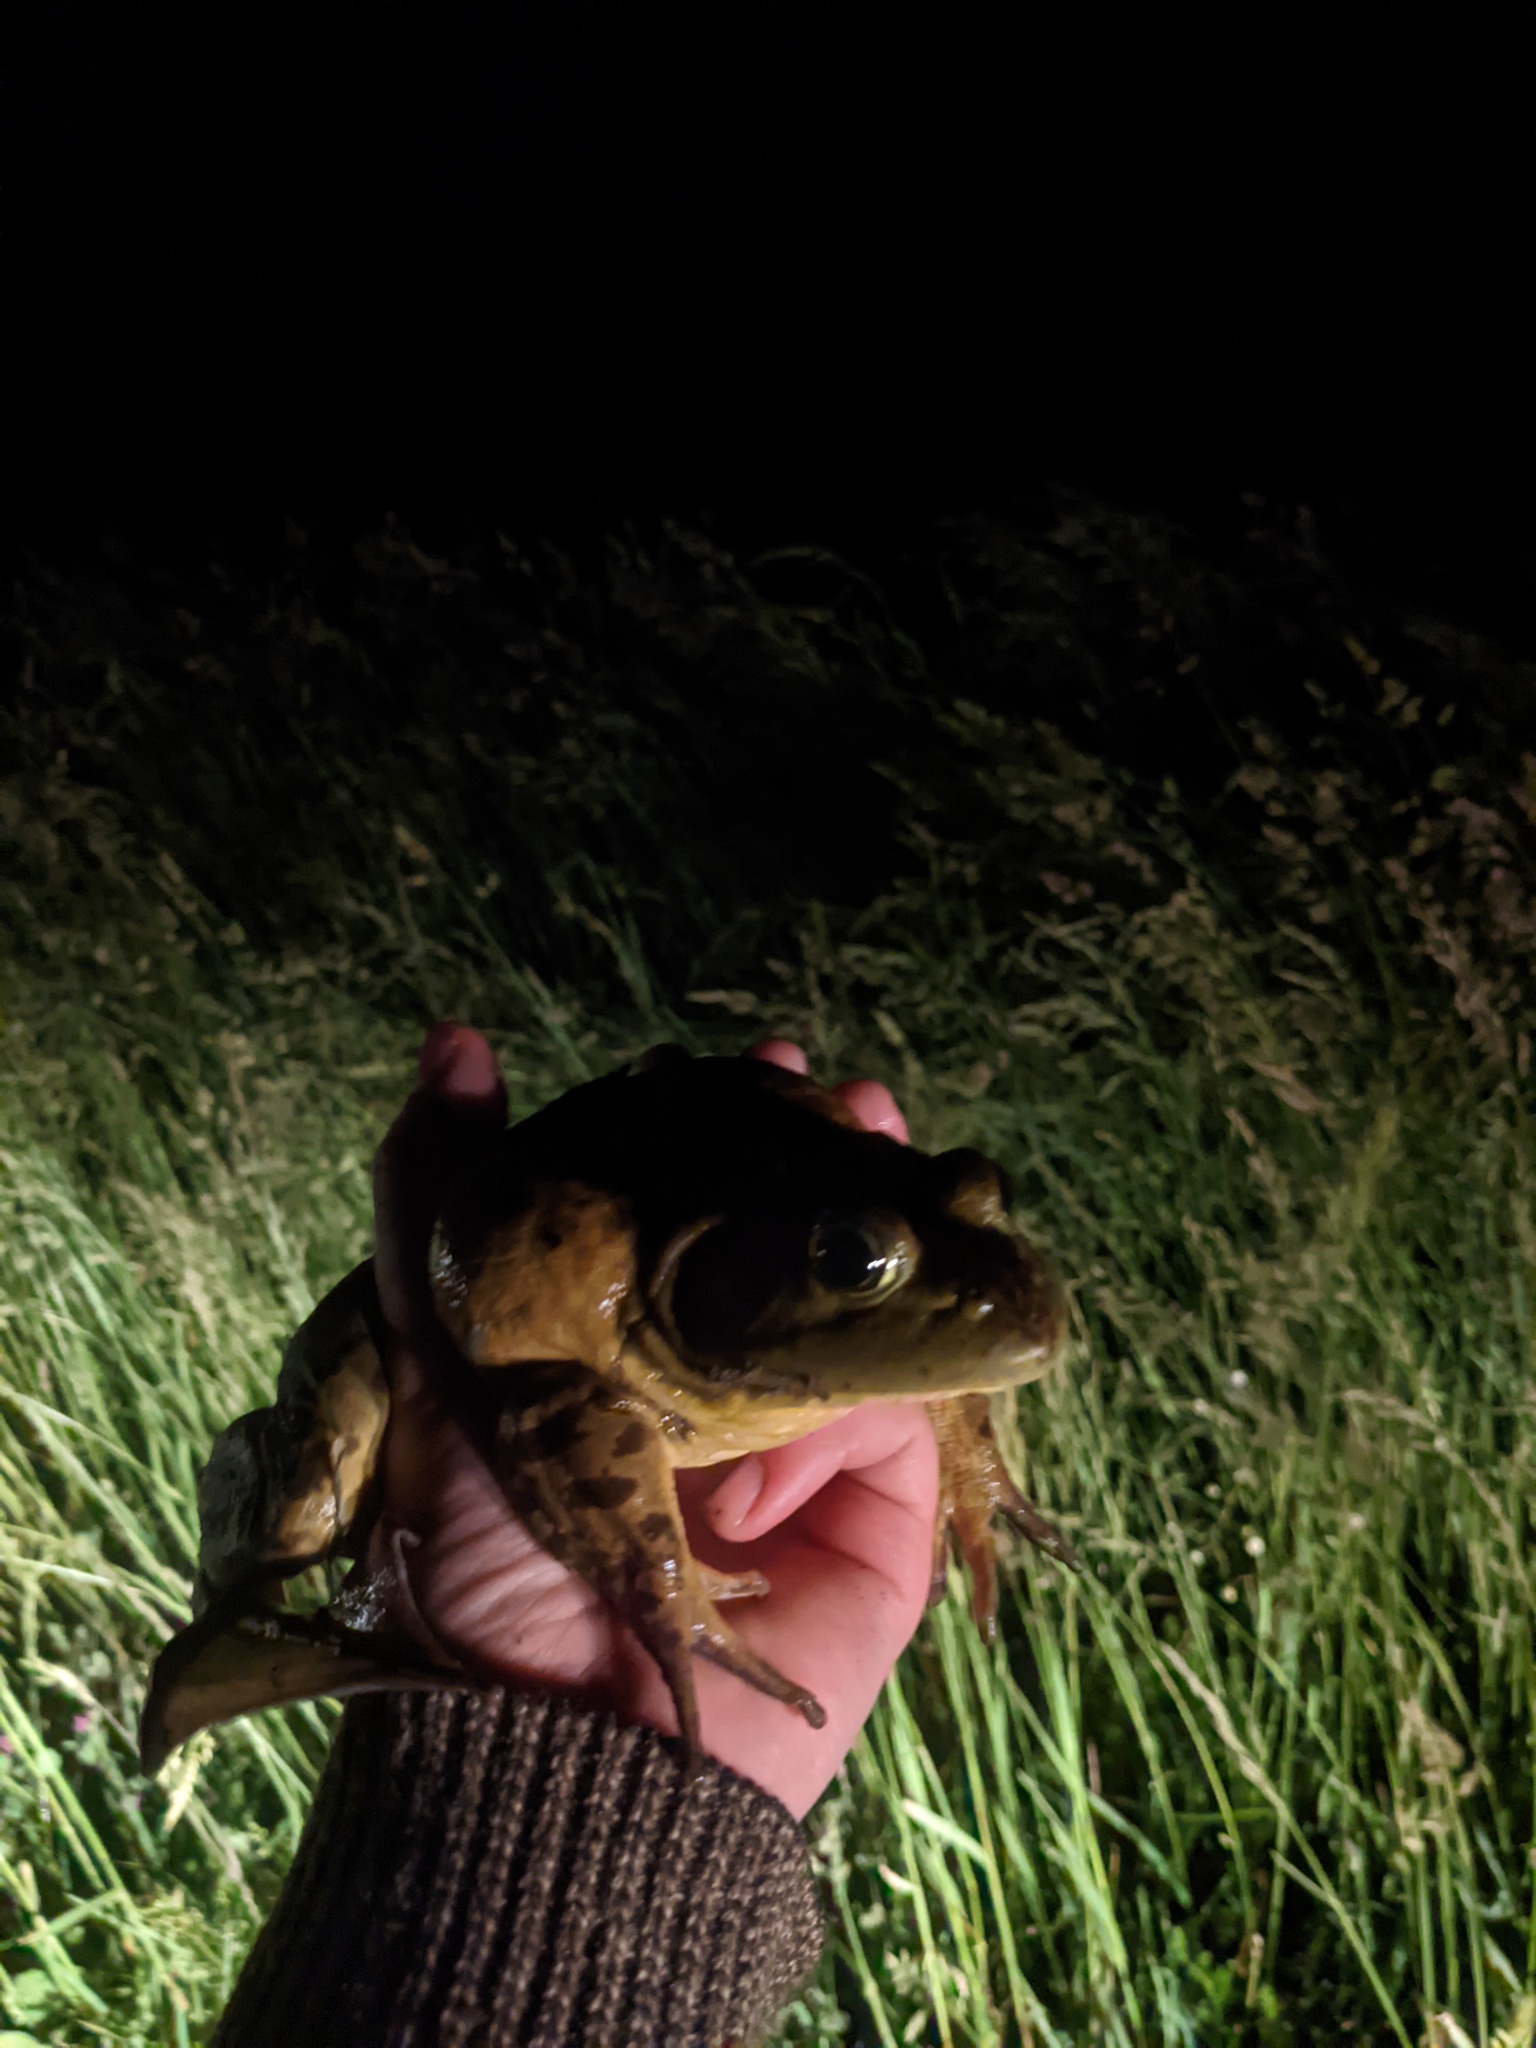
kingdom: Animalia
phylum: Chordata
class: Amphibia
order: Anura
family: Ranidae
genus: Lithobates
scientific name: Lithobates catesbeianus
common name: American bullfrog
